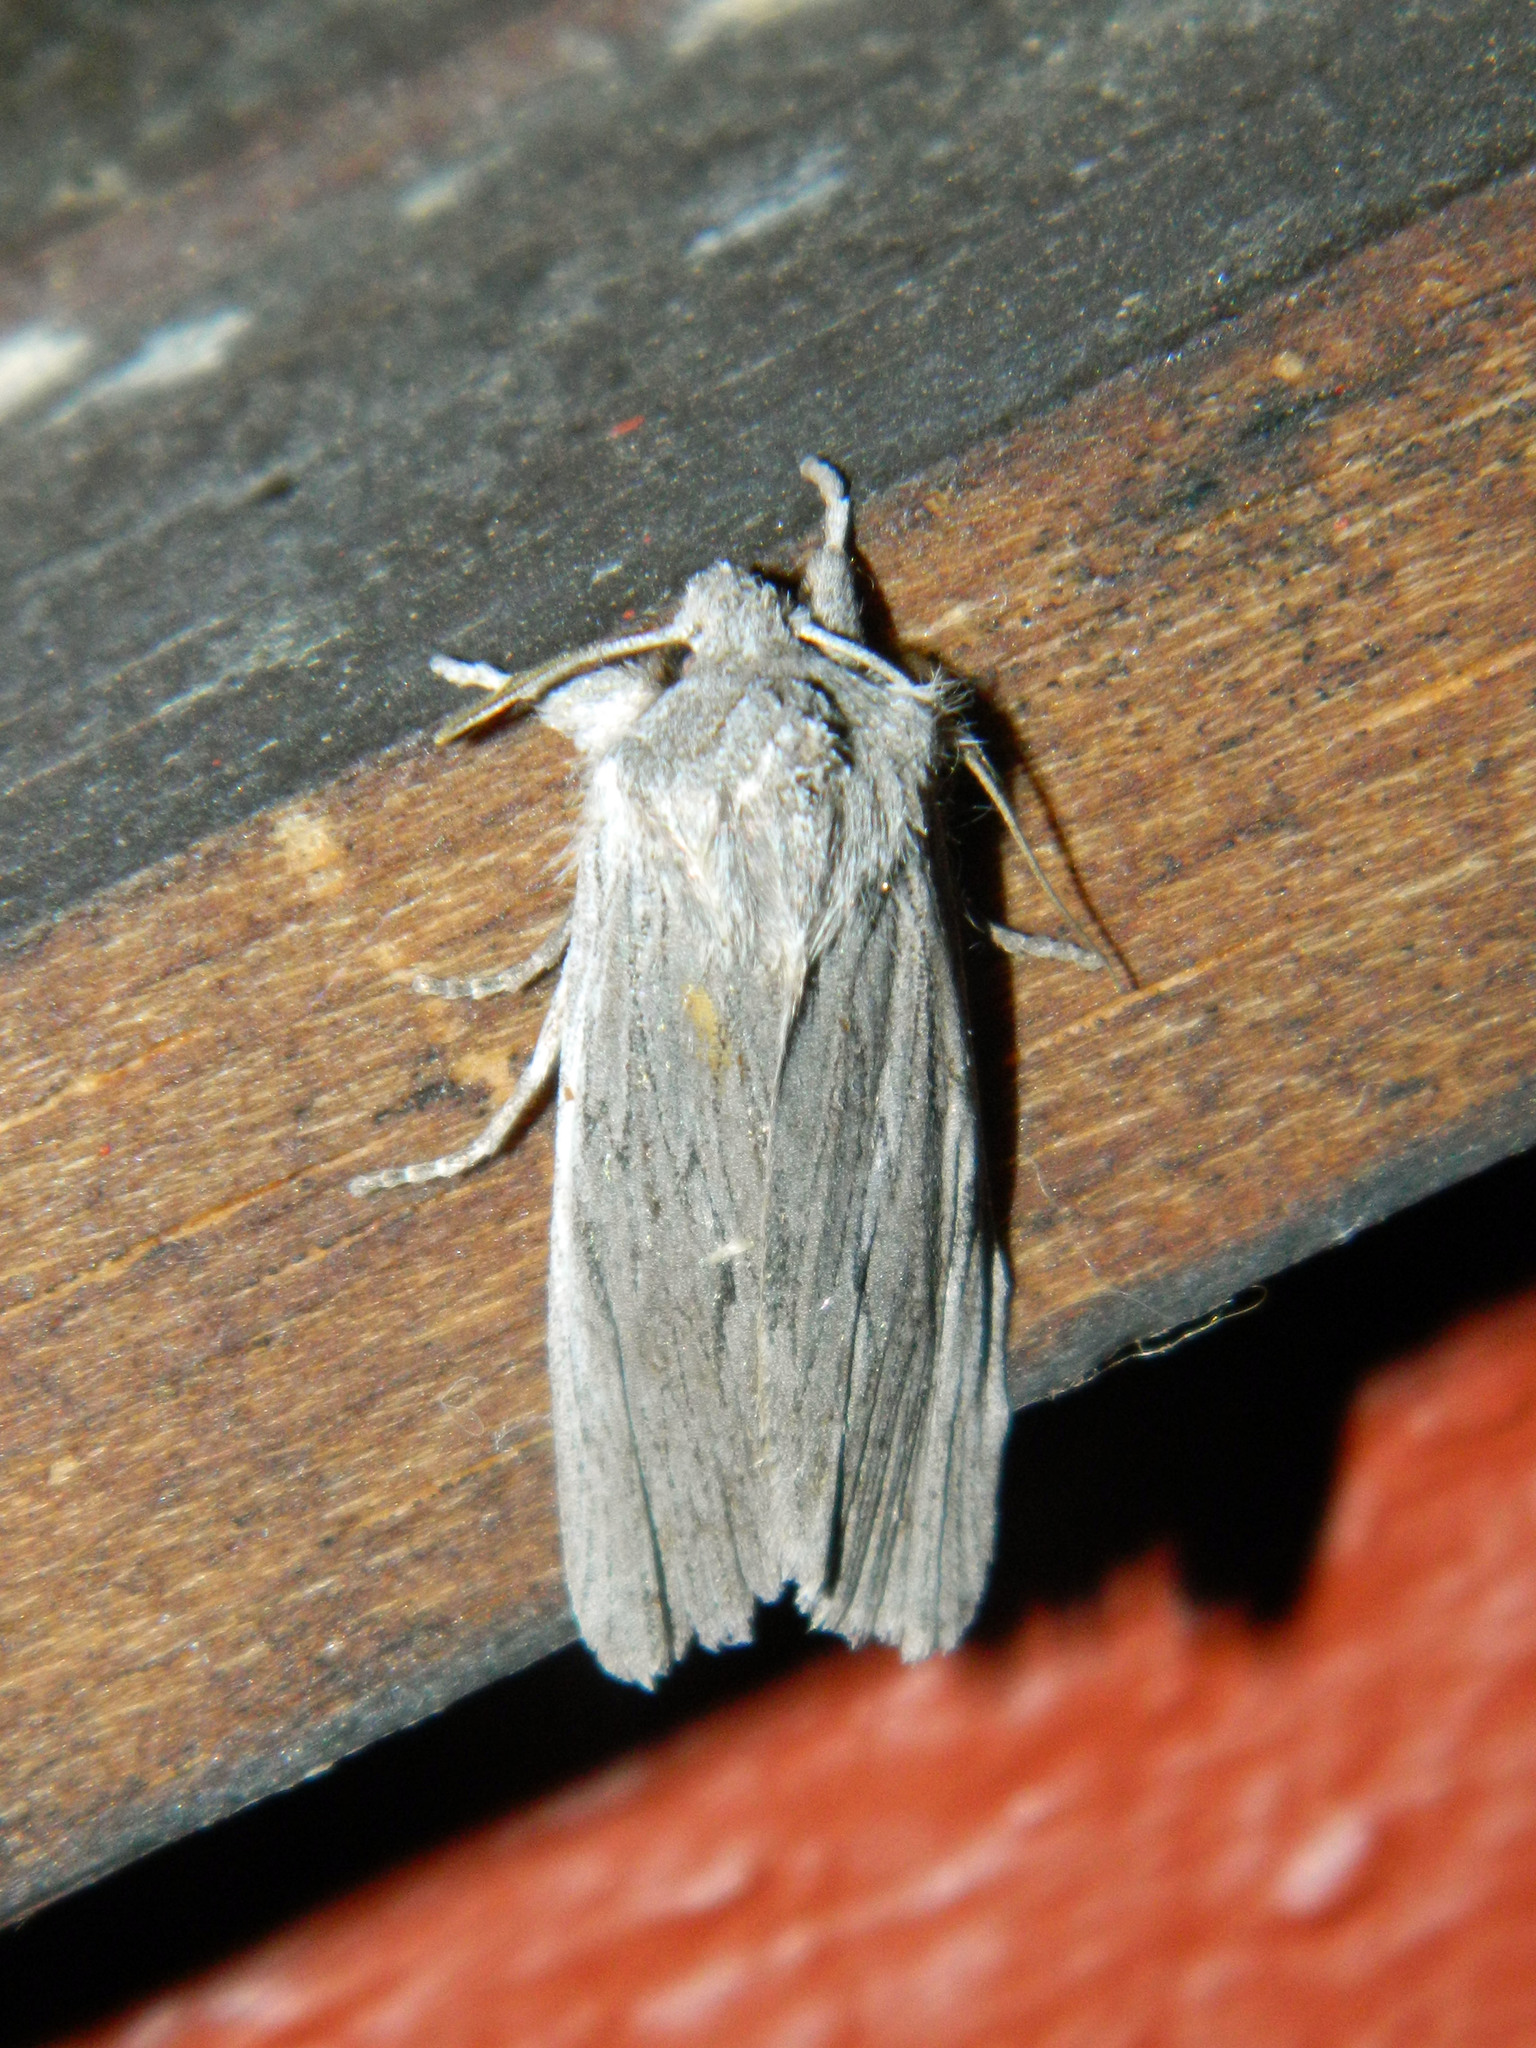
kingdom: Animalia
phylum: Arthropoda
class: Insecta
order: Lepidoptera
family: Noctuidae
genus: Lithophane
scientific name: Lithophane fagina
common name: Hoary pinion moth
